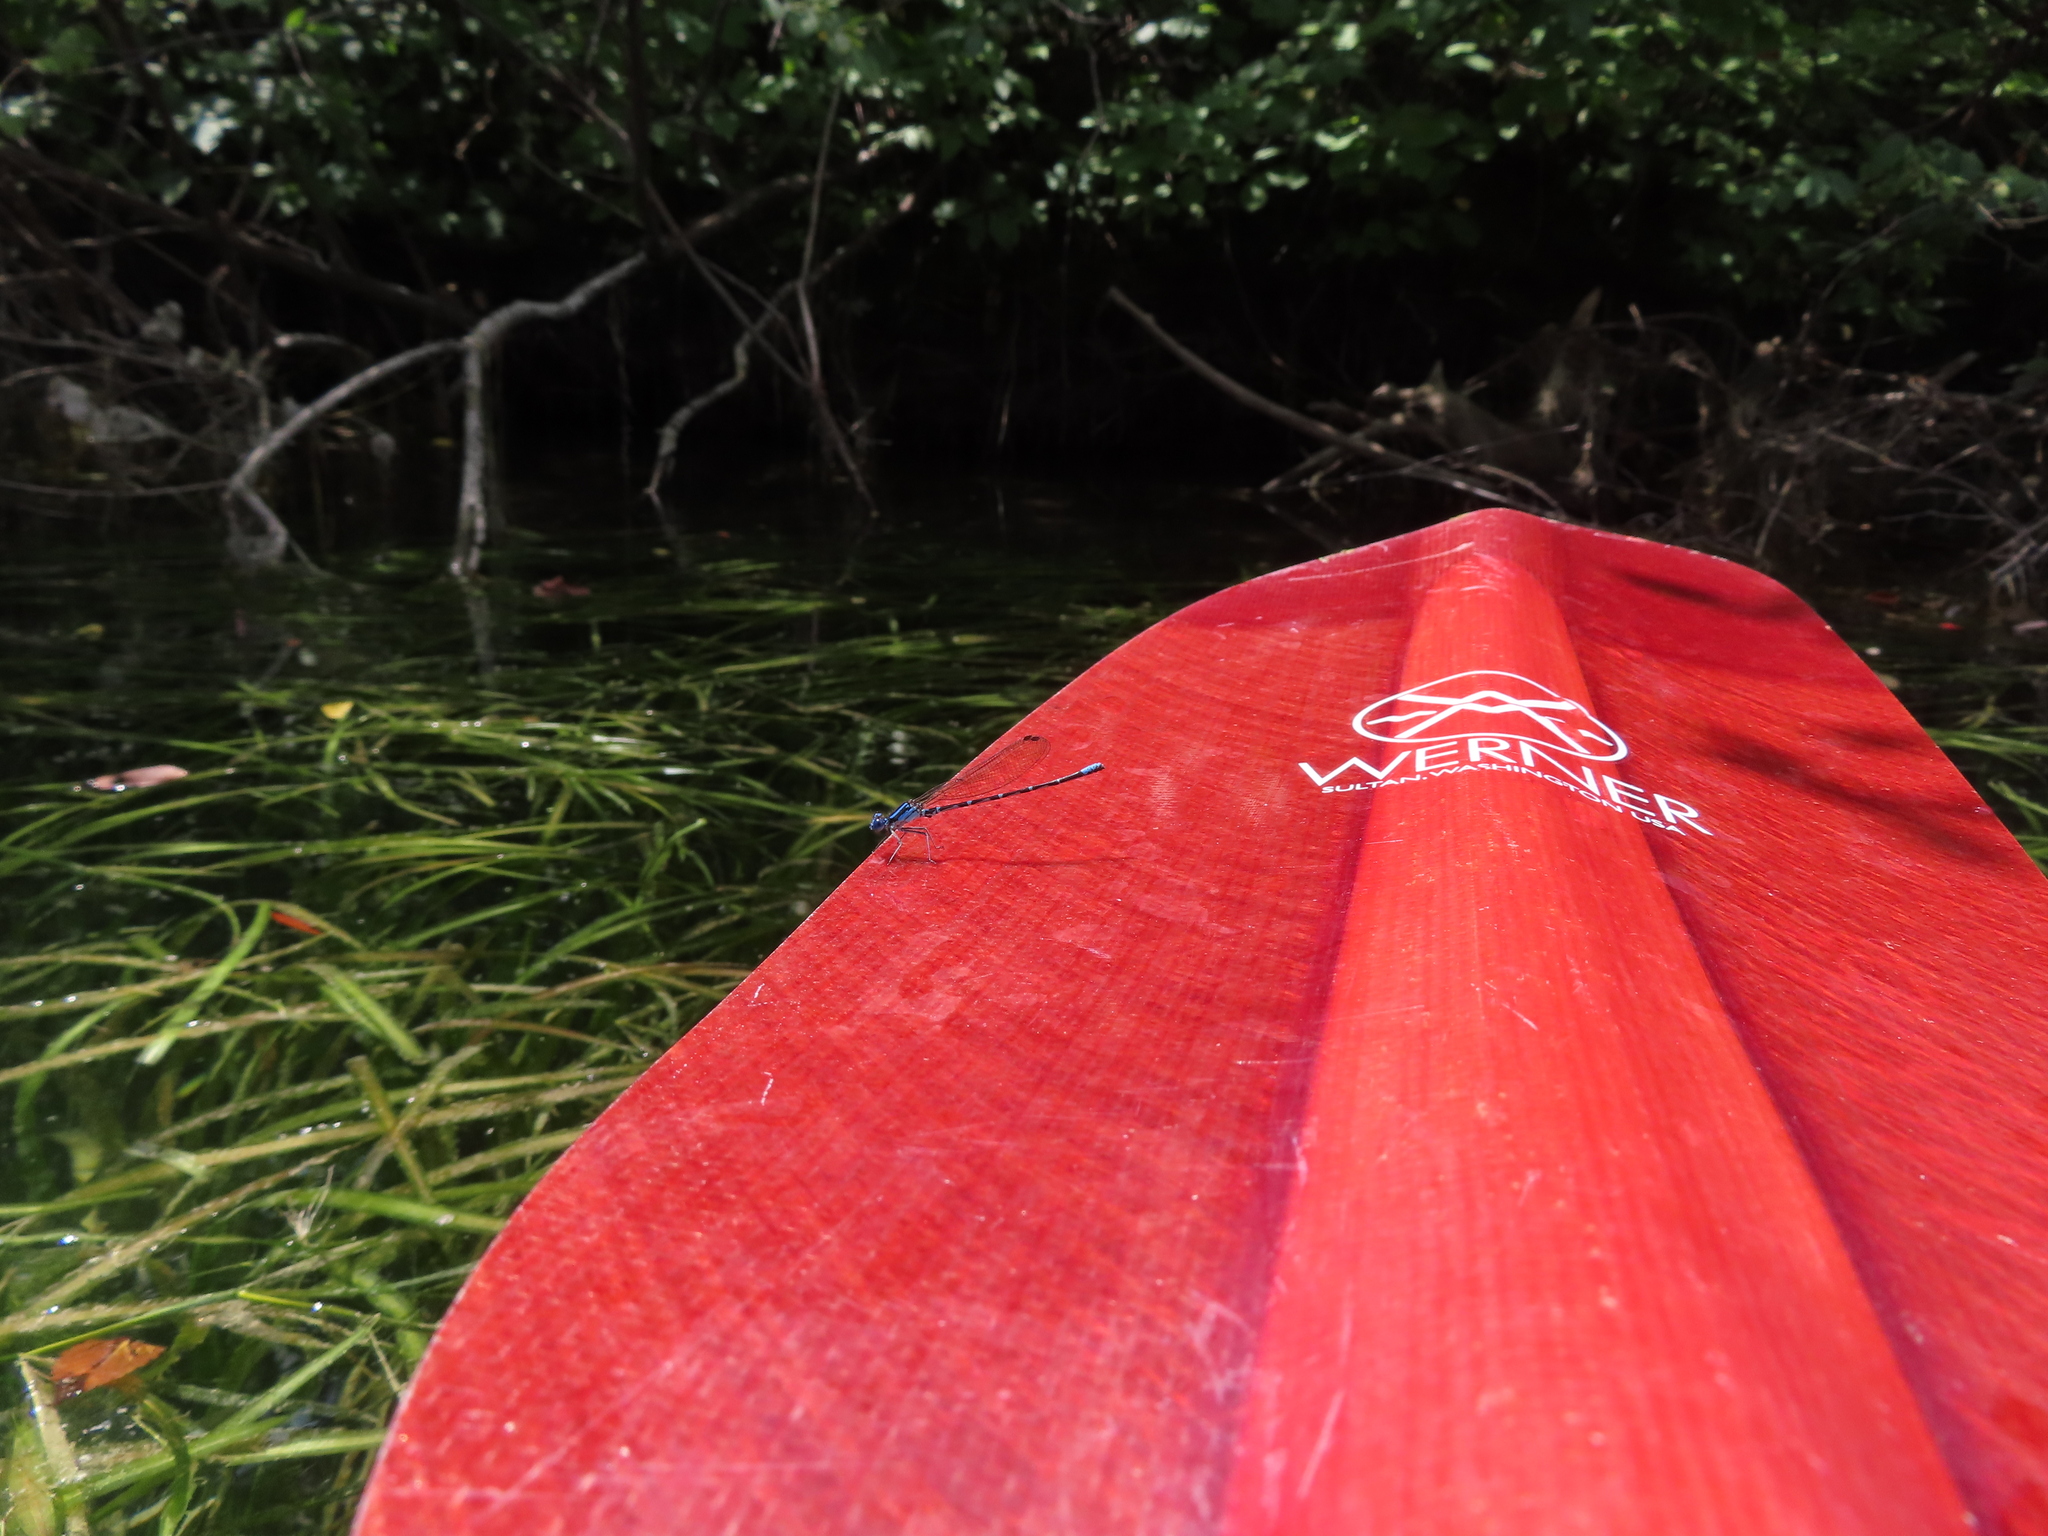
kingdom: Animalia
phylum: Arthropoda
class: Insecta
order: Odonata
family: Coenagrionidae
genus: Argia
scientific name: Argia sedula
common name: Blue-ringed dancer
